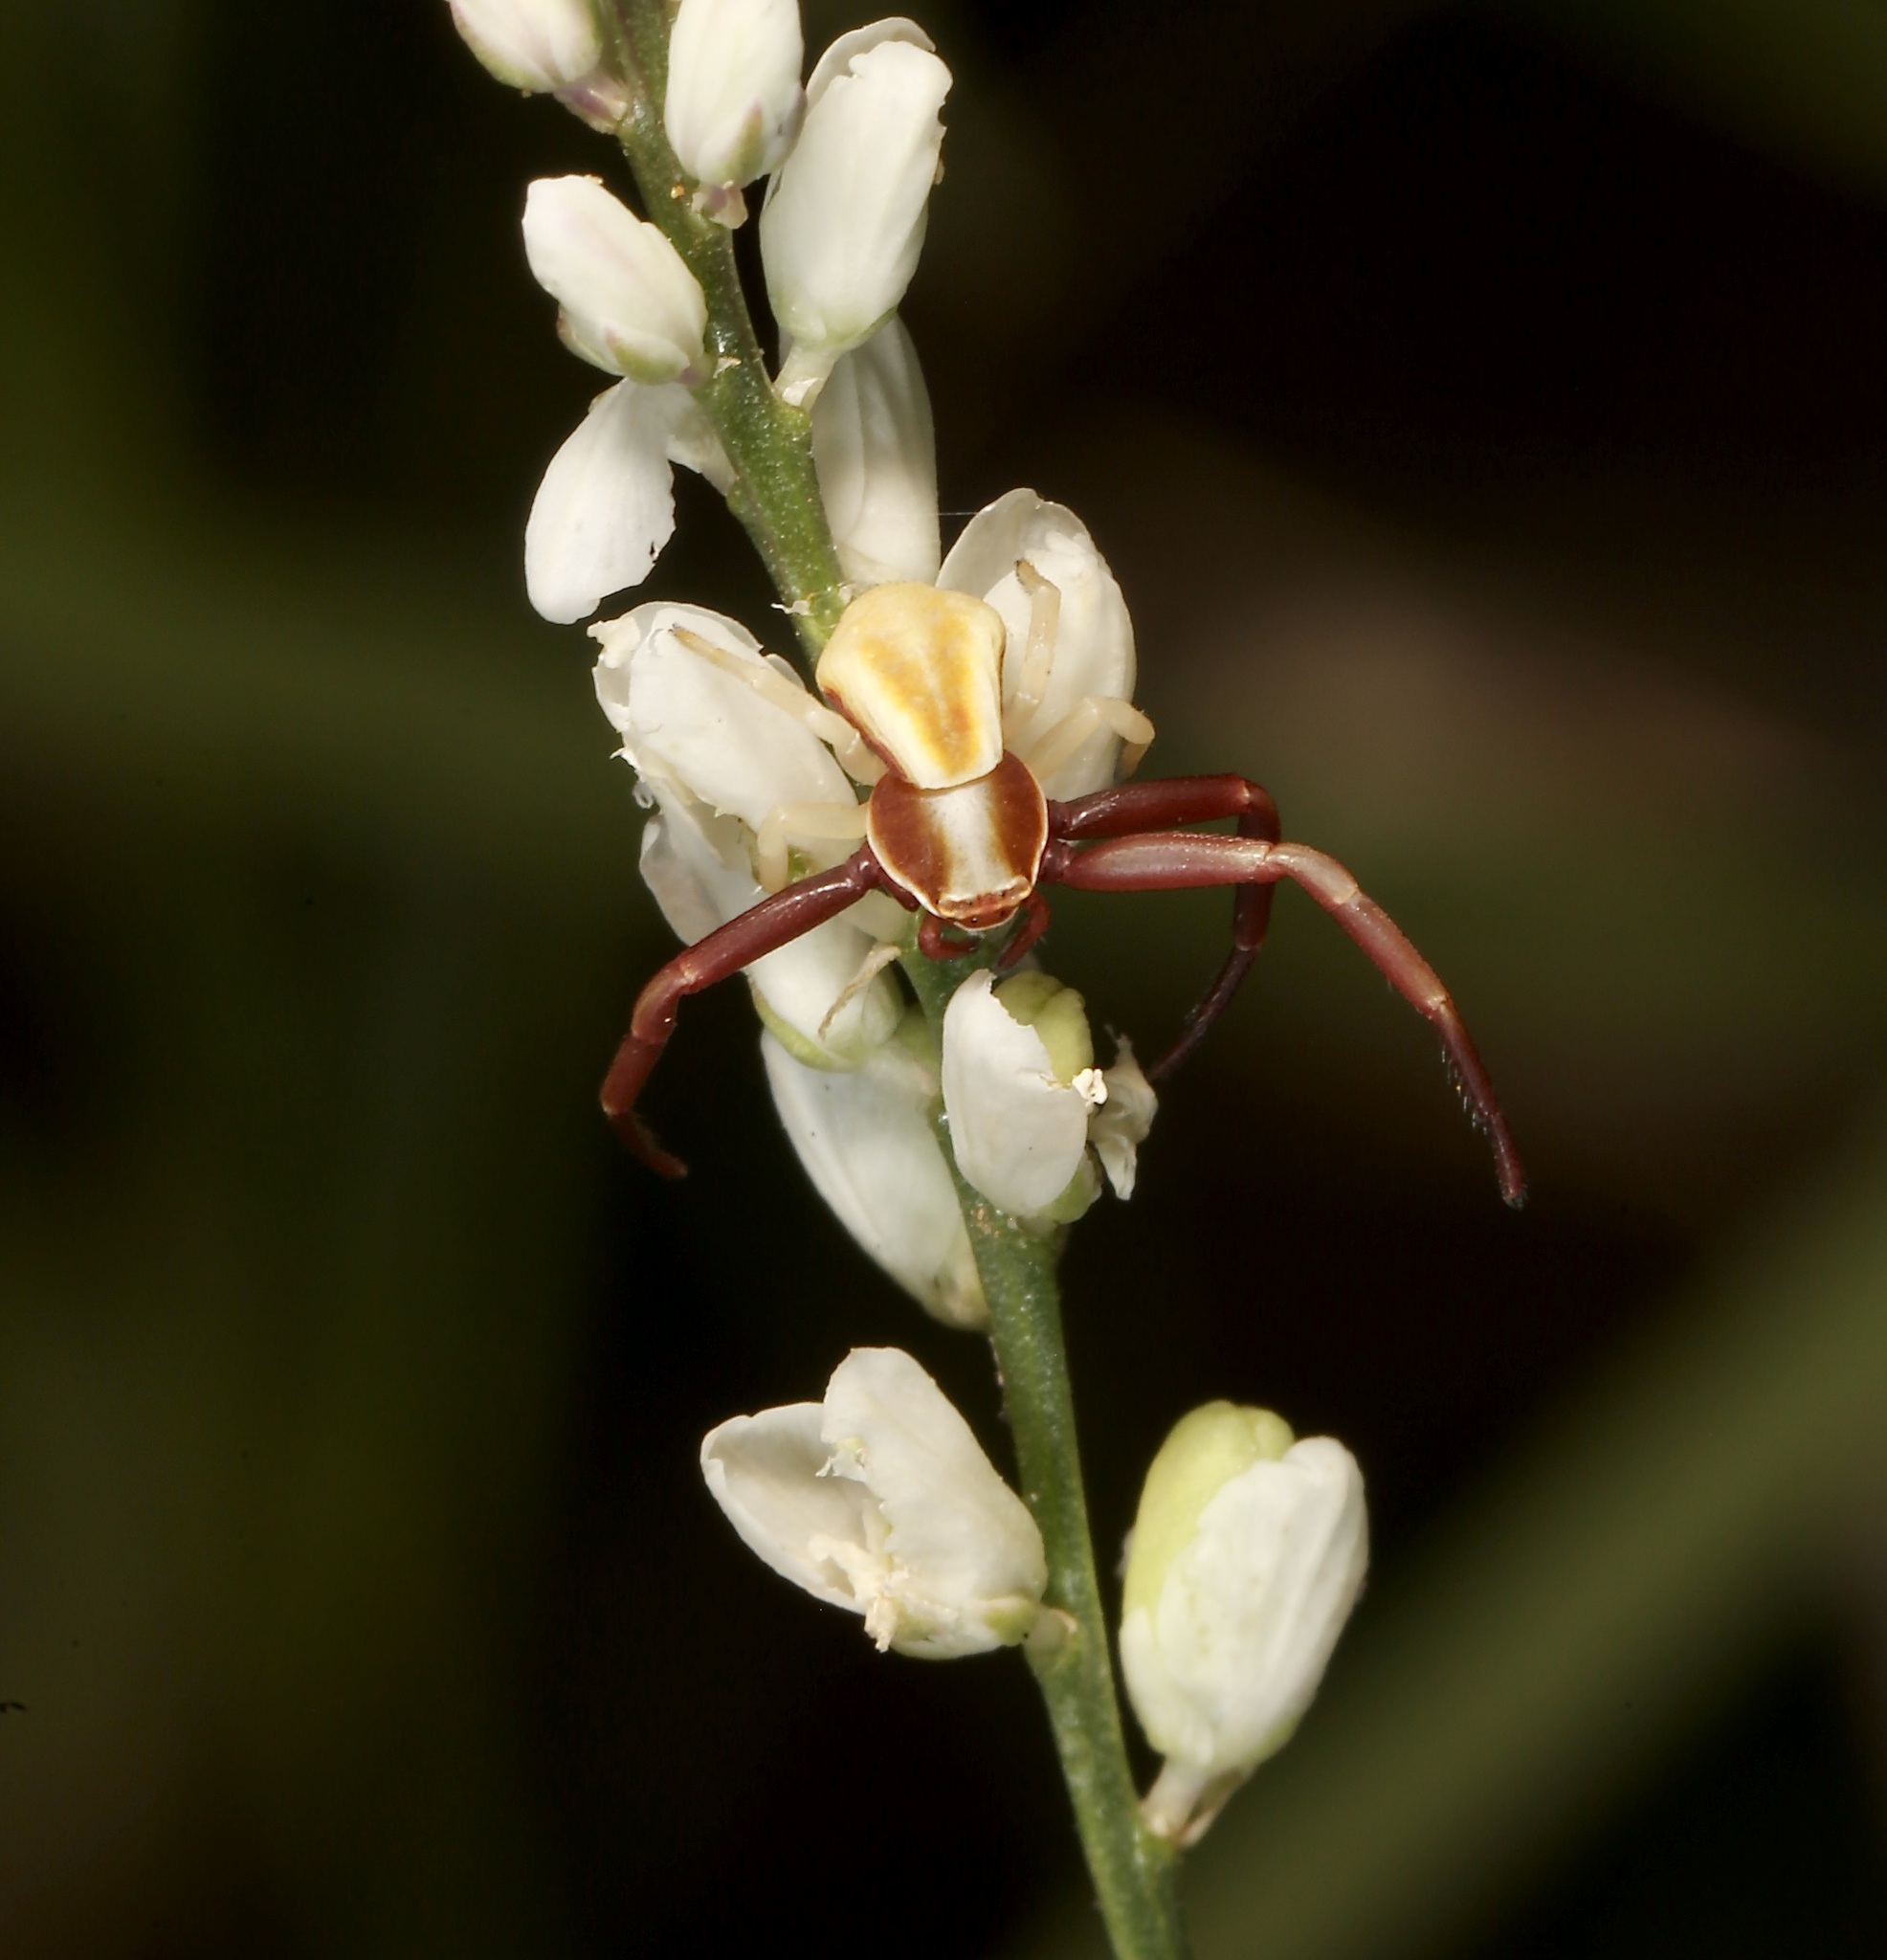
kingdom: Animalia
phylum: Arthropoda
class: Arachnida
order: Araneae
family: Thomisidae
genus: Misumenoides
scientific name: Misumenoides formosipes
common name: White-banded crab spider
